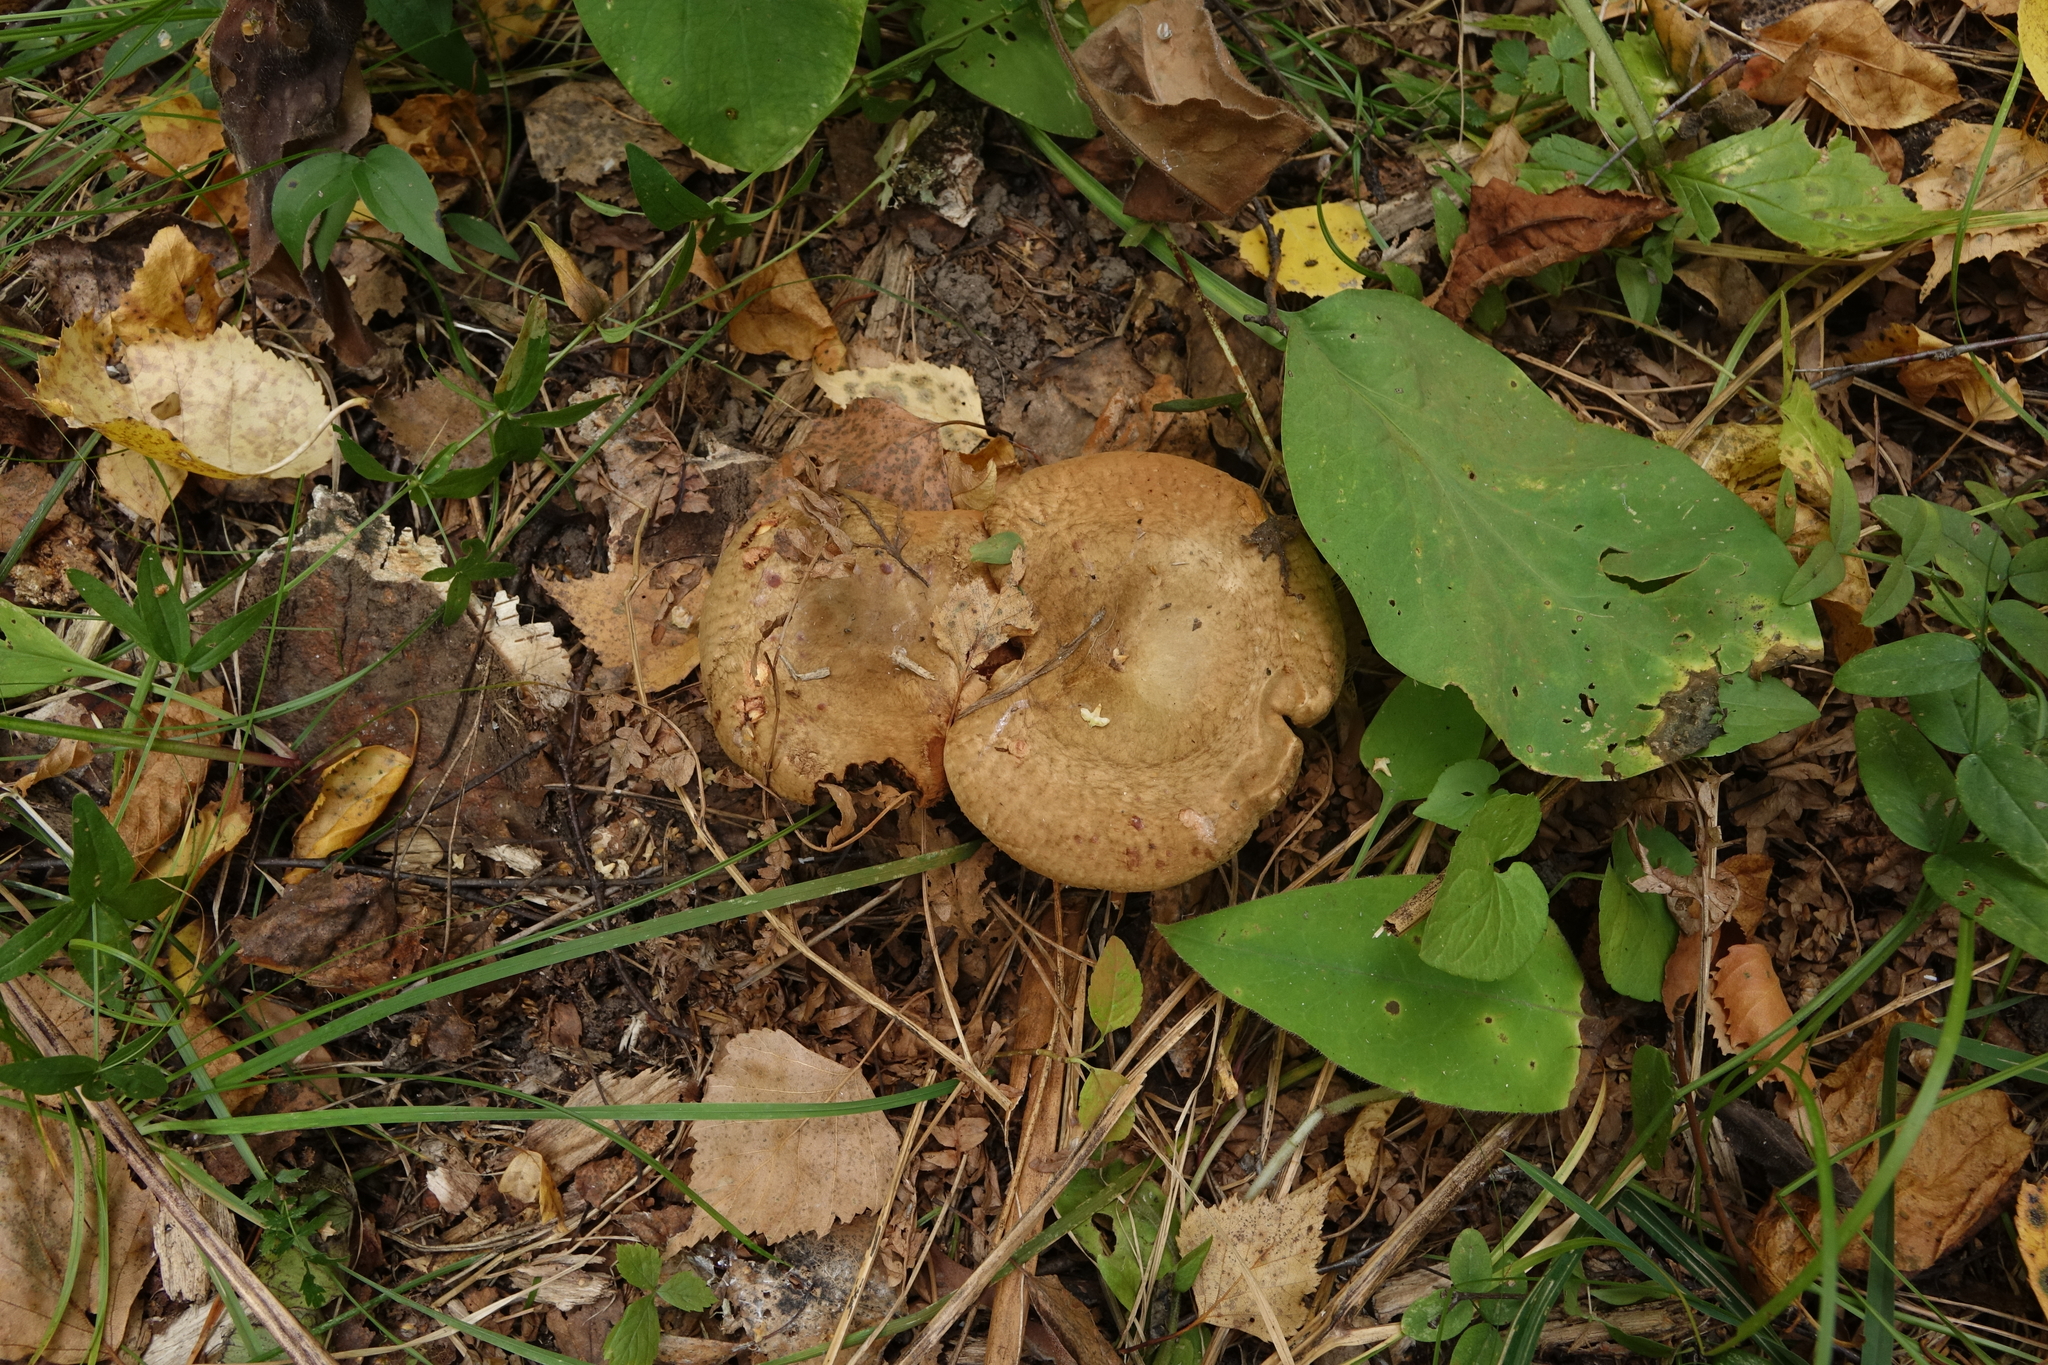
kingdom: Fungi
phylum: Basidiomycota
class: Agaricomycetes
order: Boletales
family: Paxillaceae
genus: Paxillus
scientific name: Paxillus involutus
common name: Brown roll rim
